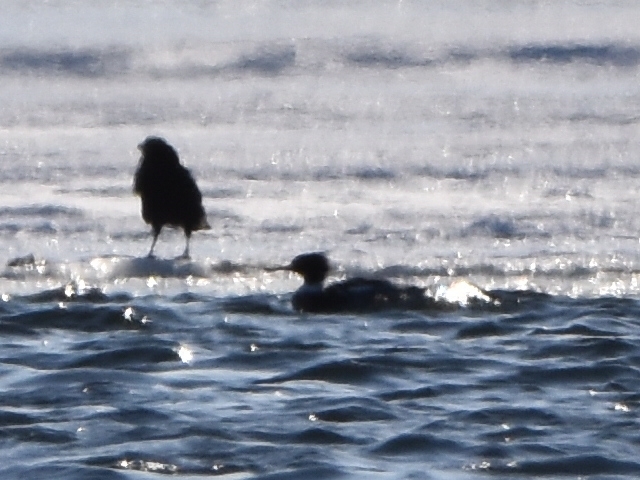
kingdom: Animalia
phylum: Chordata
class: Aves
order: Anseriformes
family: Anatidae
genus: Mergus
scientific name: Mergus serrator
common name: Red-breasted merganser
